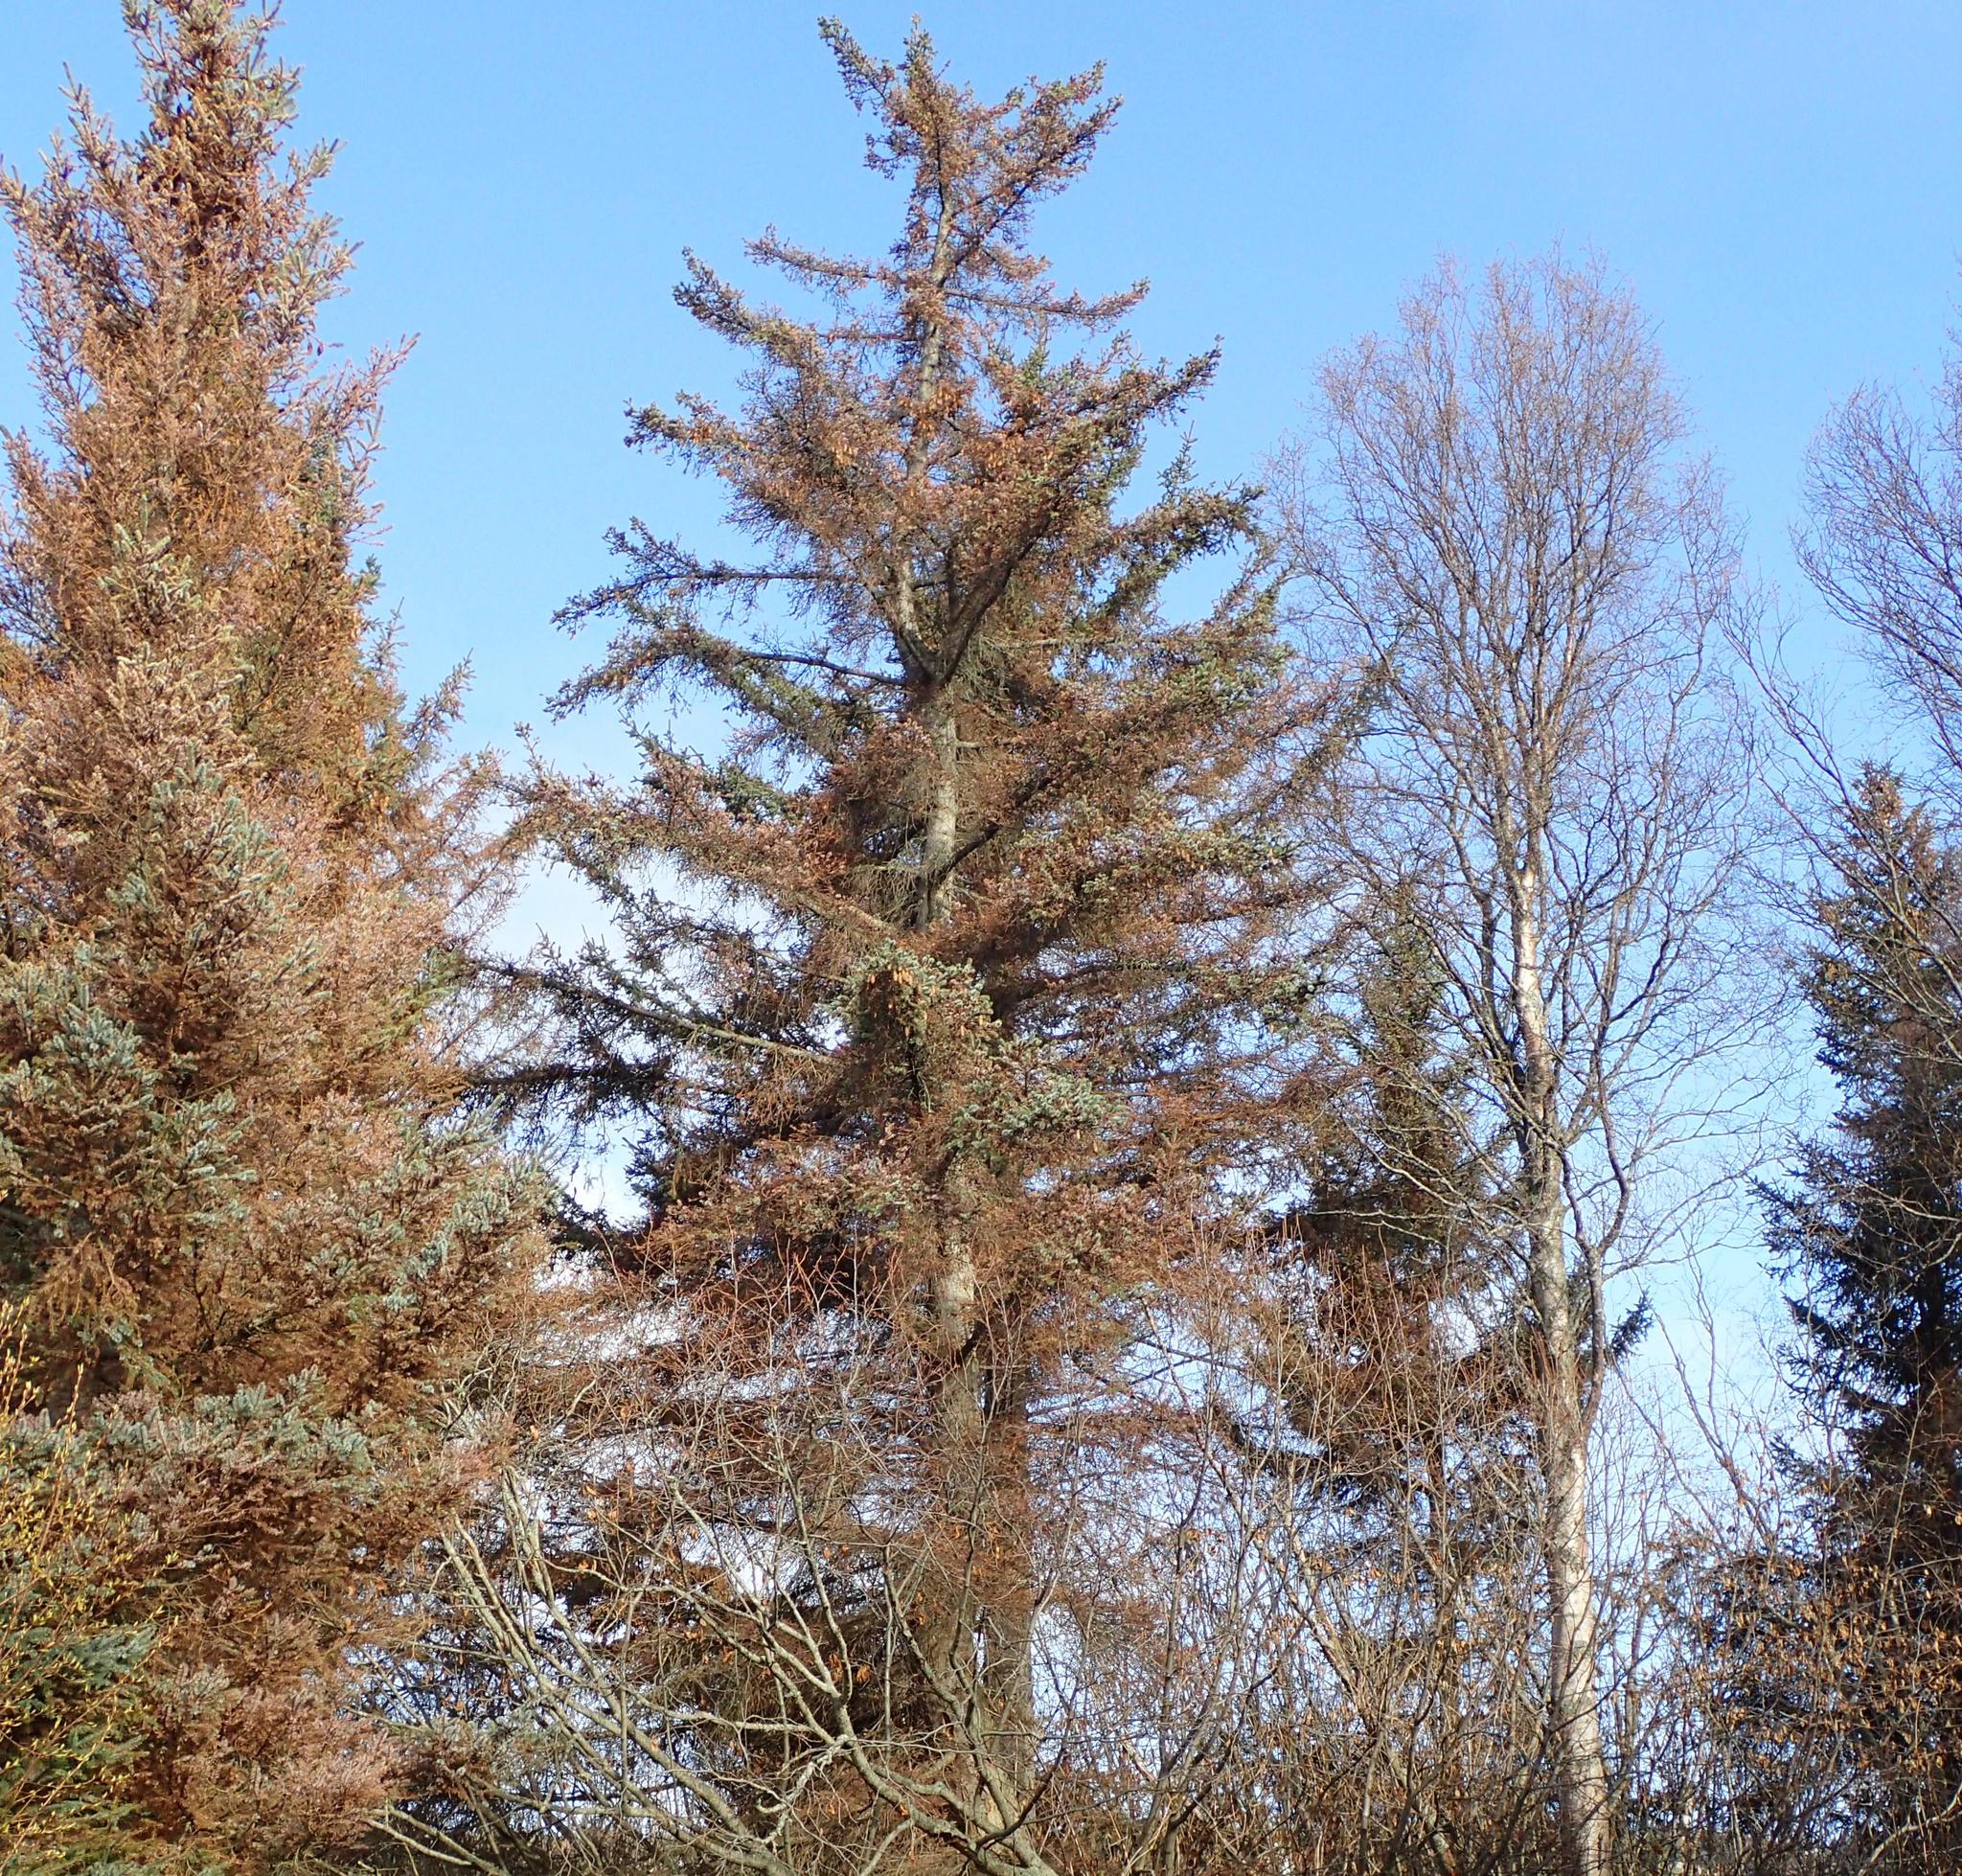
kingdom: Plantae
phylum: Tracheophyta
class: Pinopsida
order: Pinales
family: Pinaceae
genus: Picea
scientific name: Picea sitchensis
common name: Sitka spruce
